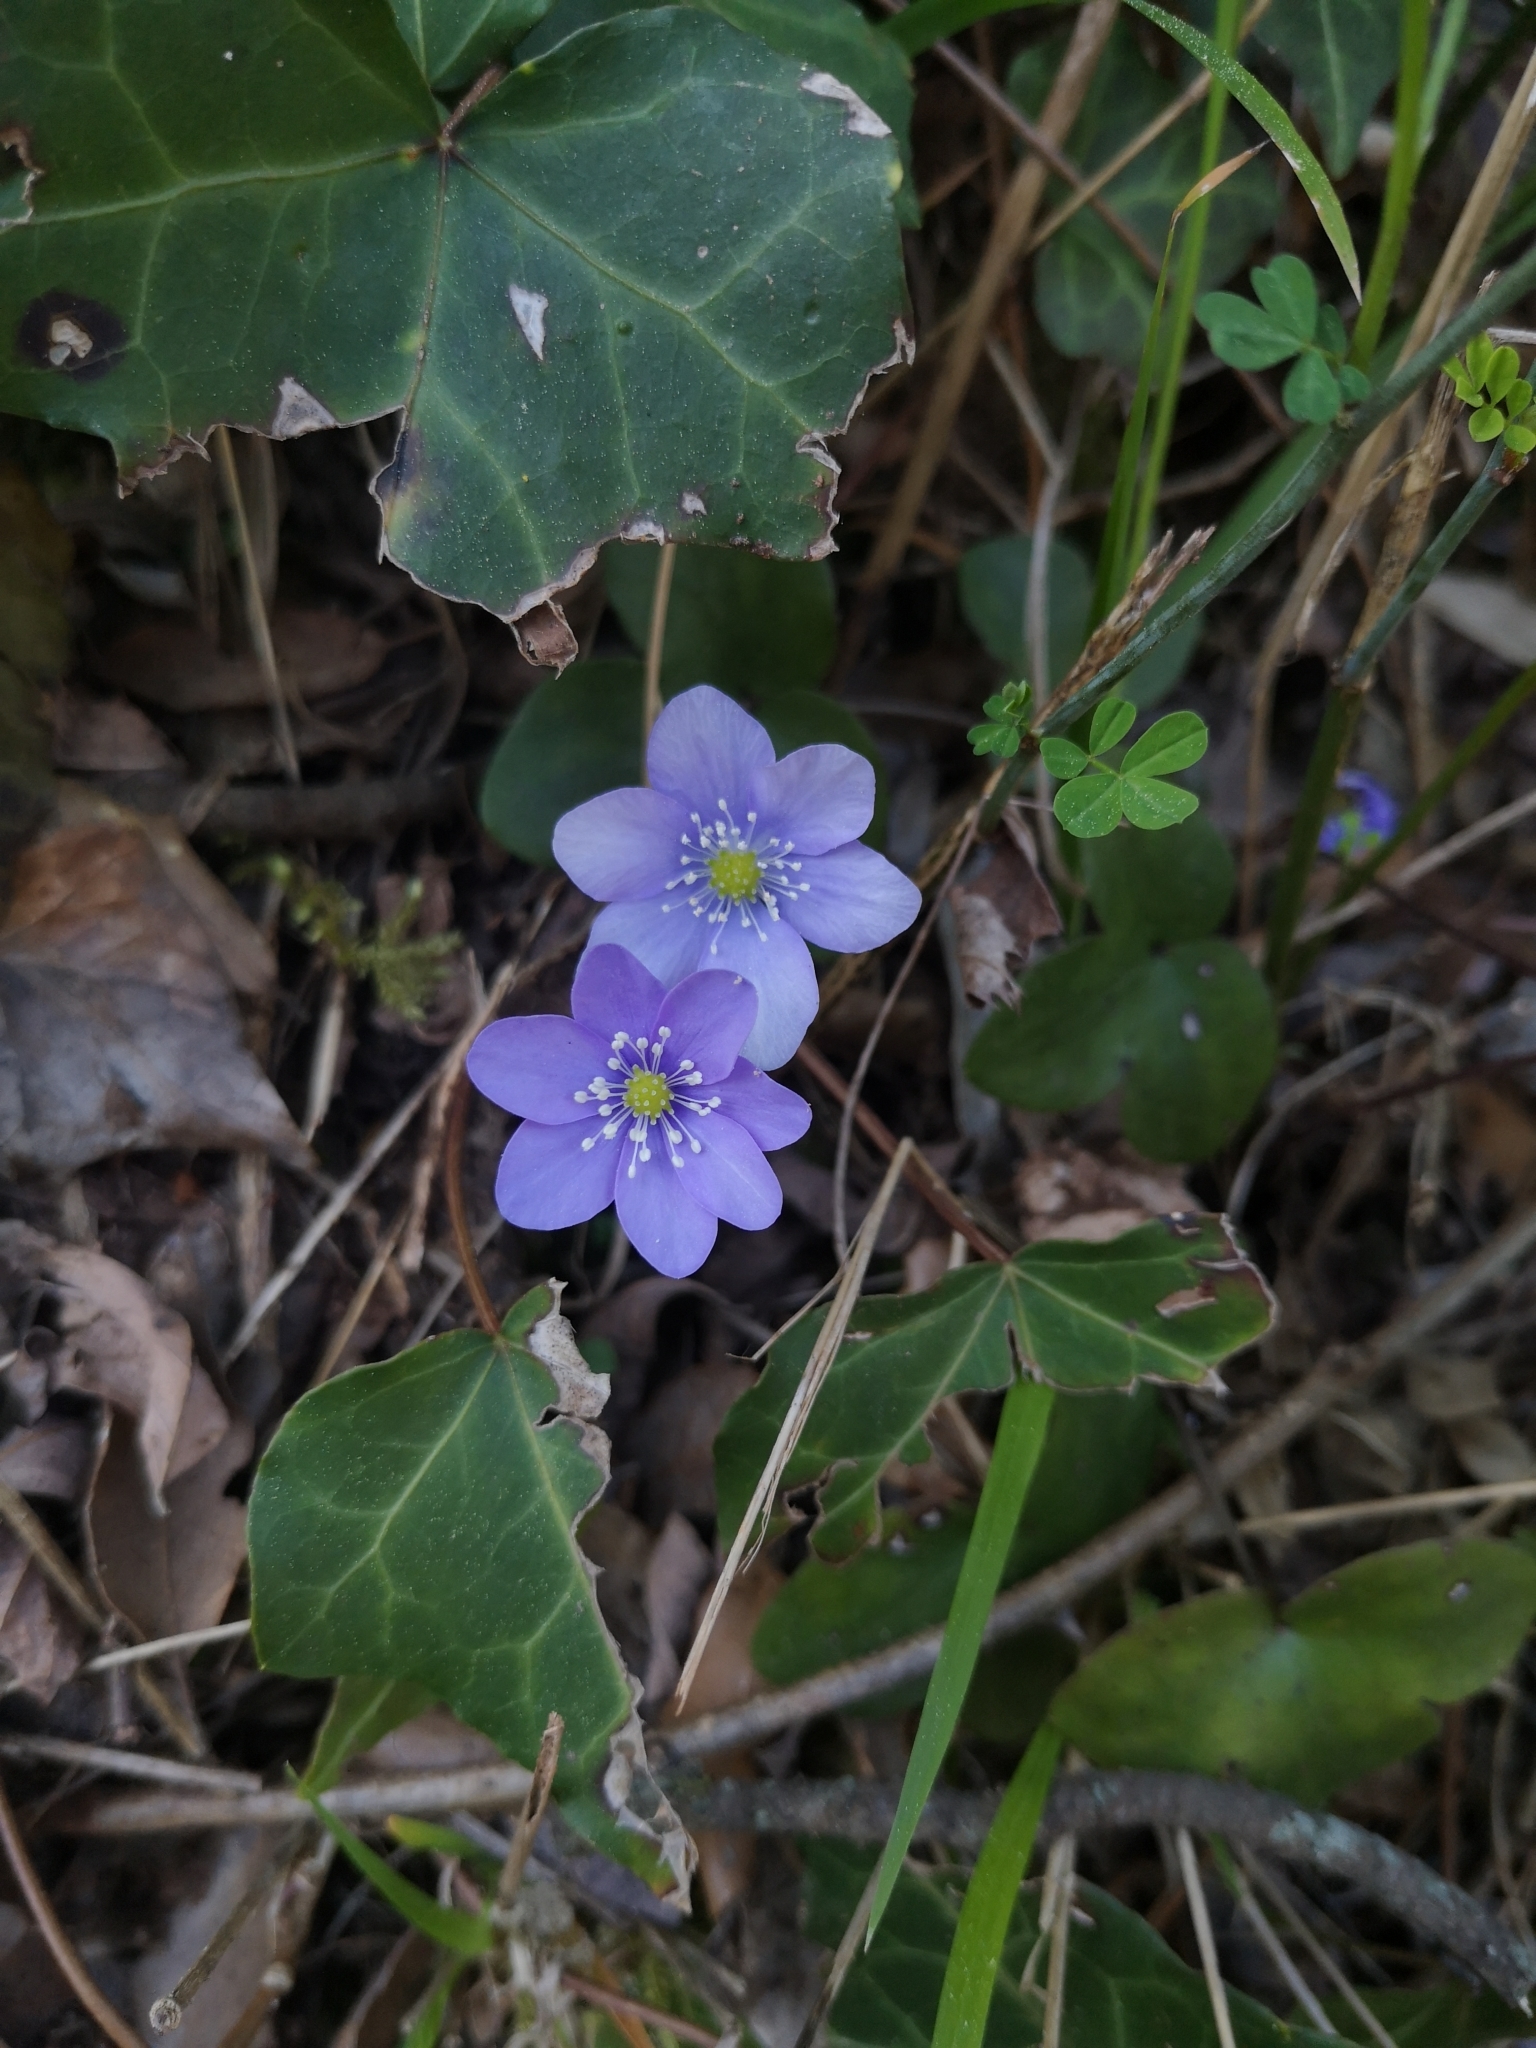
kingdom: Plantae
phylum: Tracheophyta
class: Magnoliopsida
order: Ranunculales
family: Ranunculaceae
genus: Hepatica
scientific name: Hepatica nobilis
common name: Liverleaf
